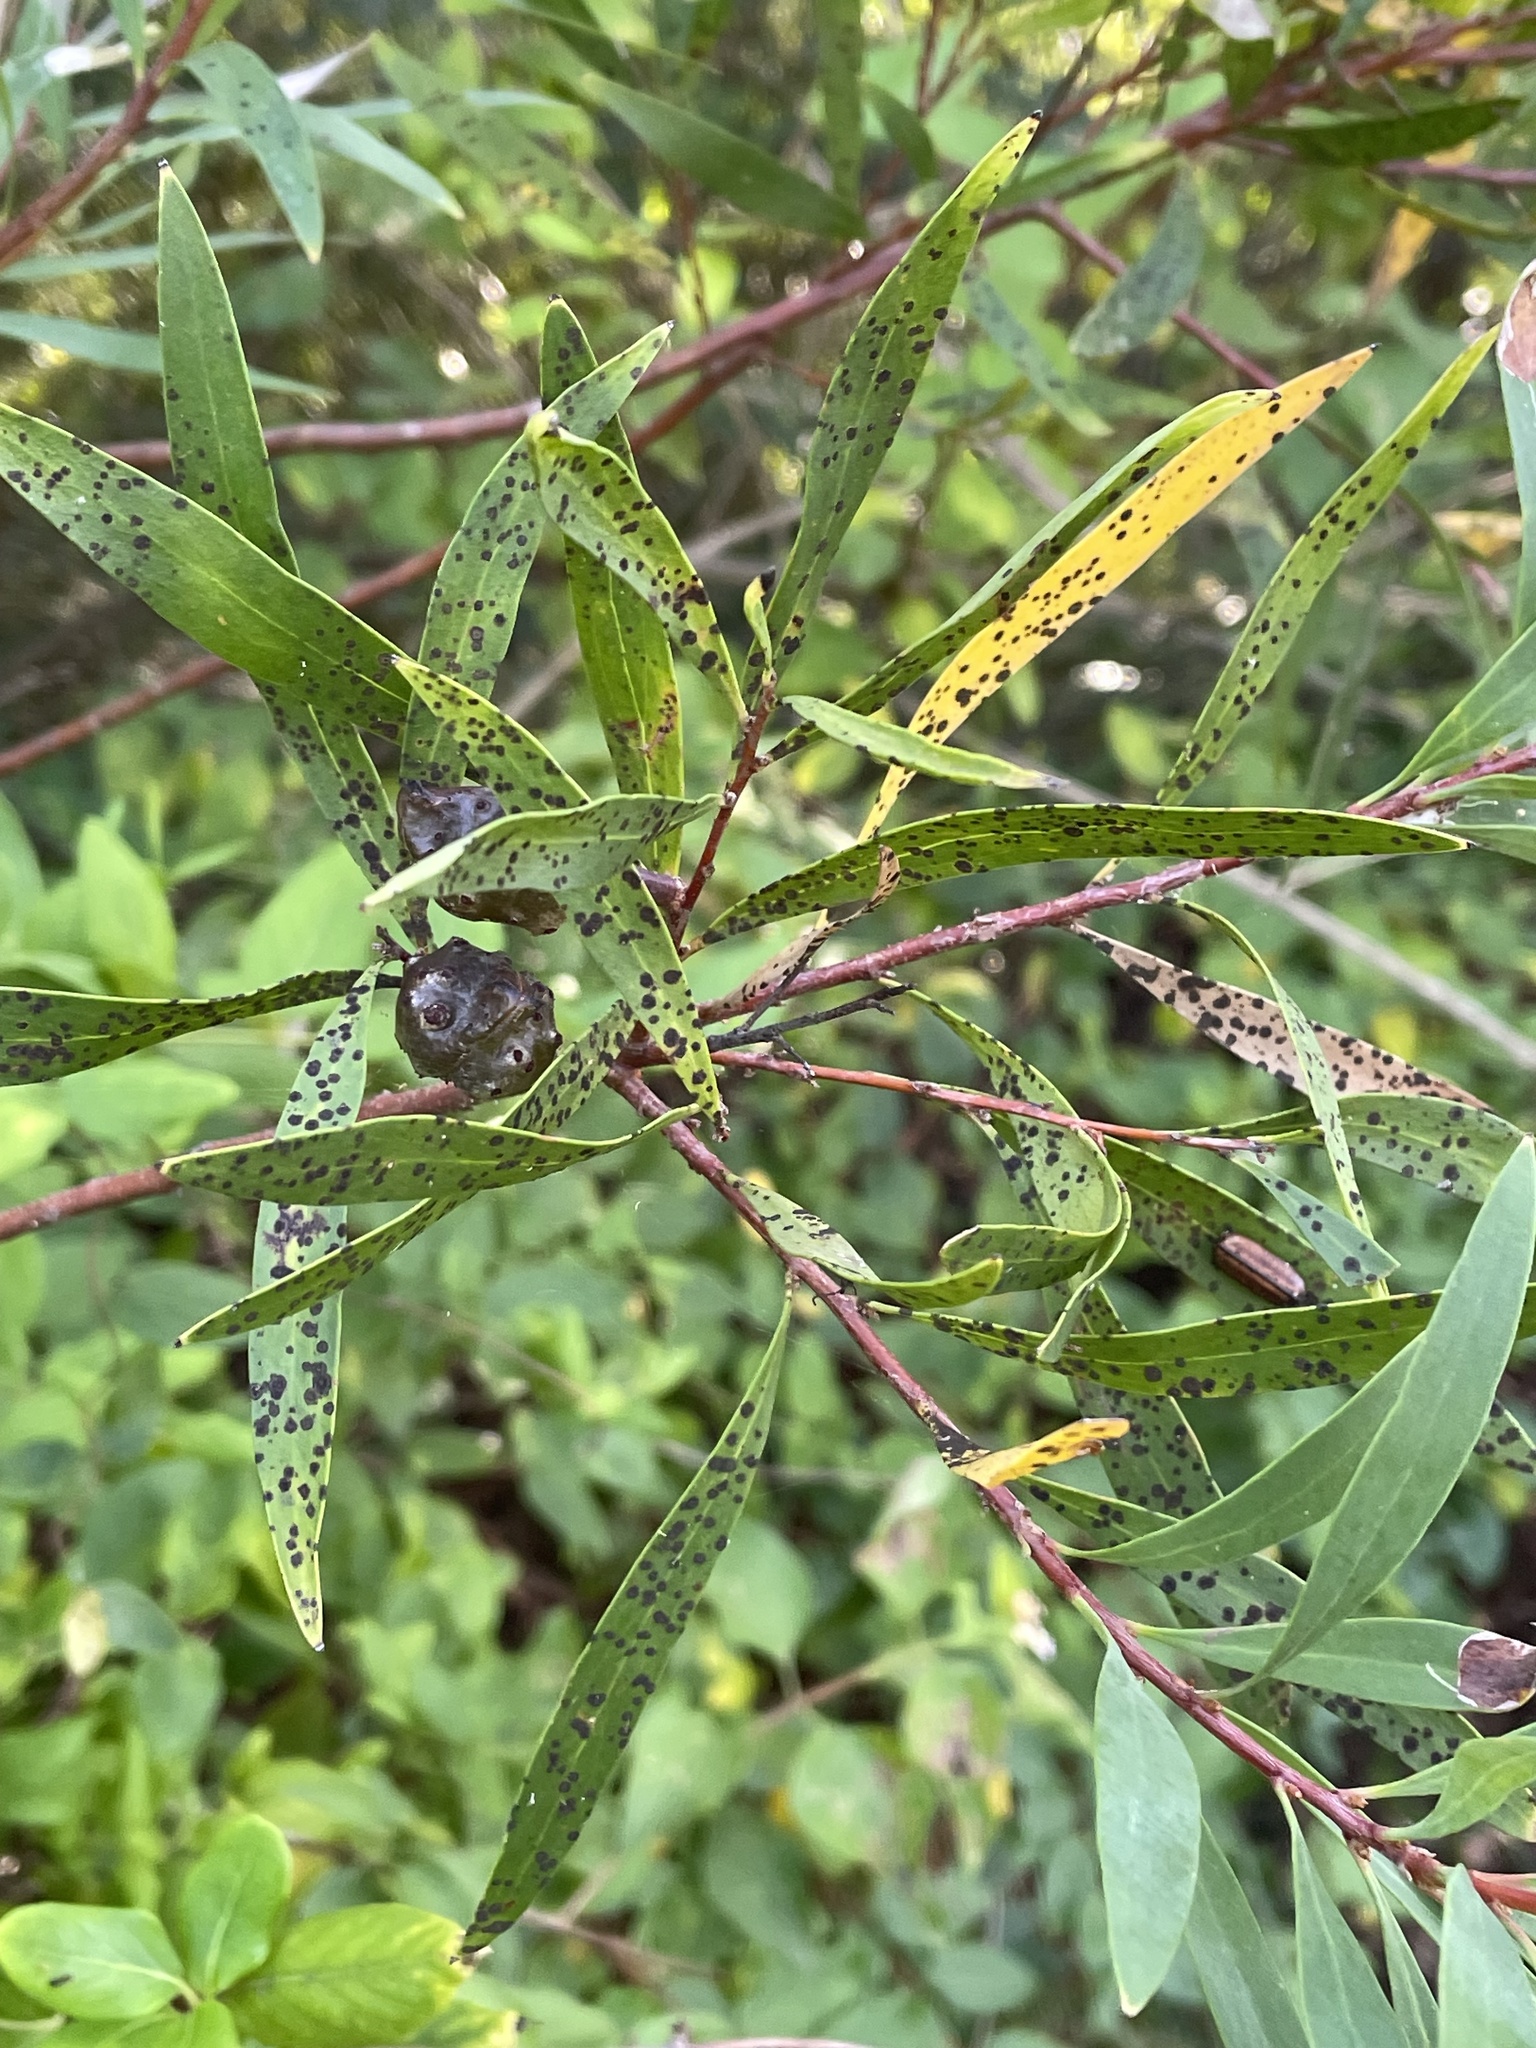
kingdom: Plantae
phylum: Tracheophyta
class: Magnoliopsida
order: Proteales
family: Proteaceae
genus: Hakea
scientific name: Hakea salicifolia
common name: Willow hakea
